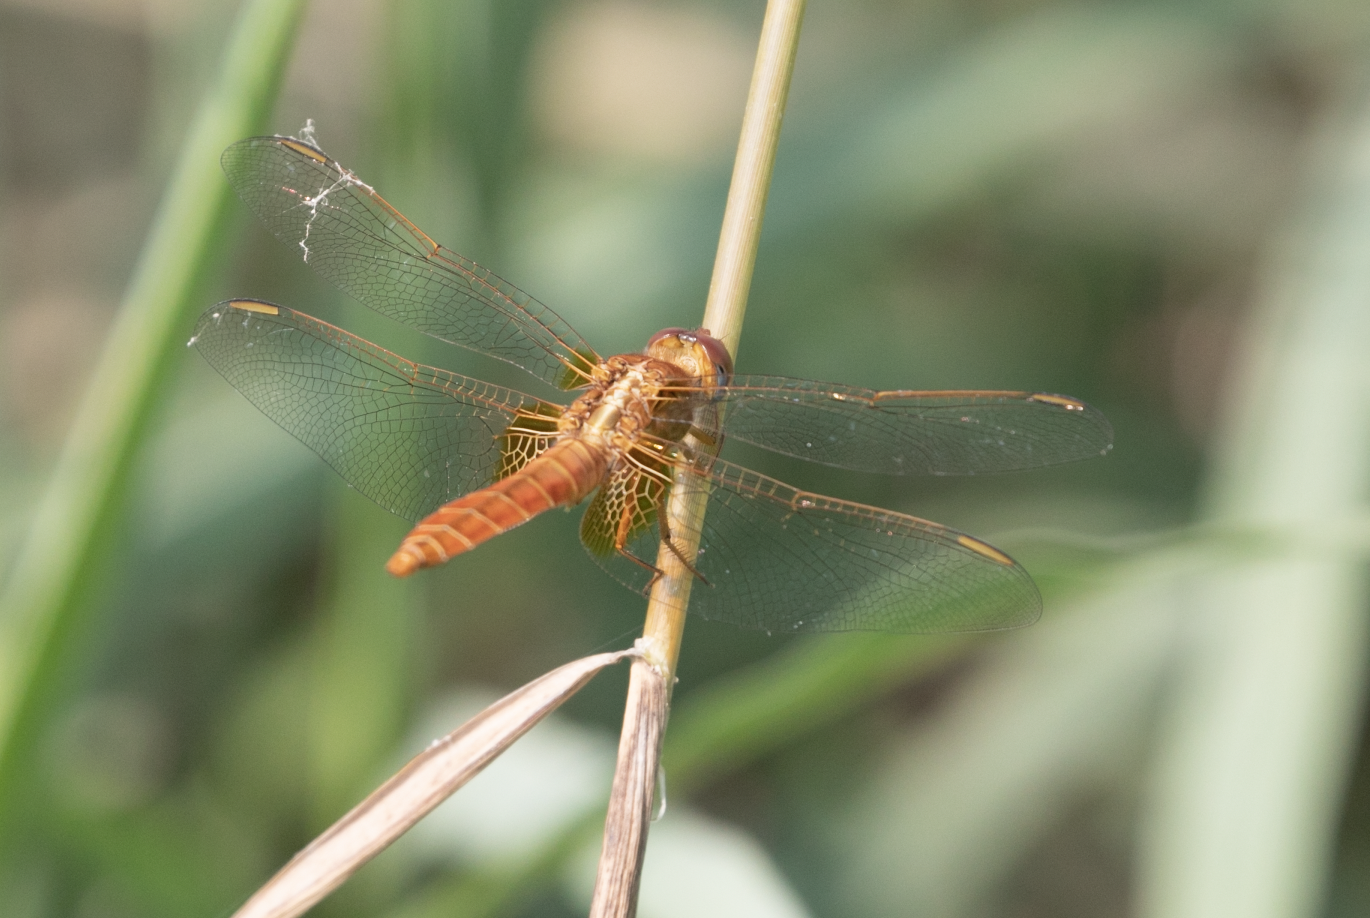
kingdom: Animalia
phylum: Arthropoda
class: Insecta
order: Odonata
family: Libellulidae
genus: Crocothemis
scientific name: Crocothemis erythraea
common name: Scarlet dragonfly
